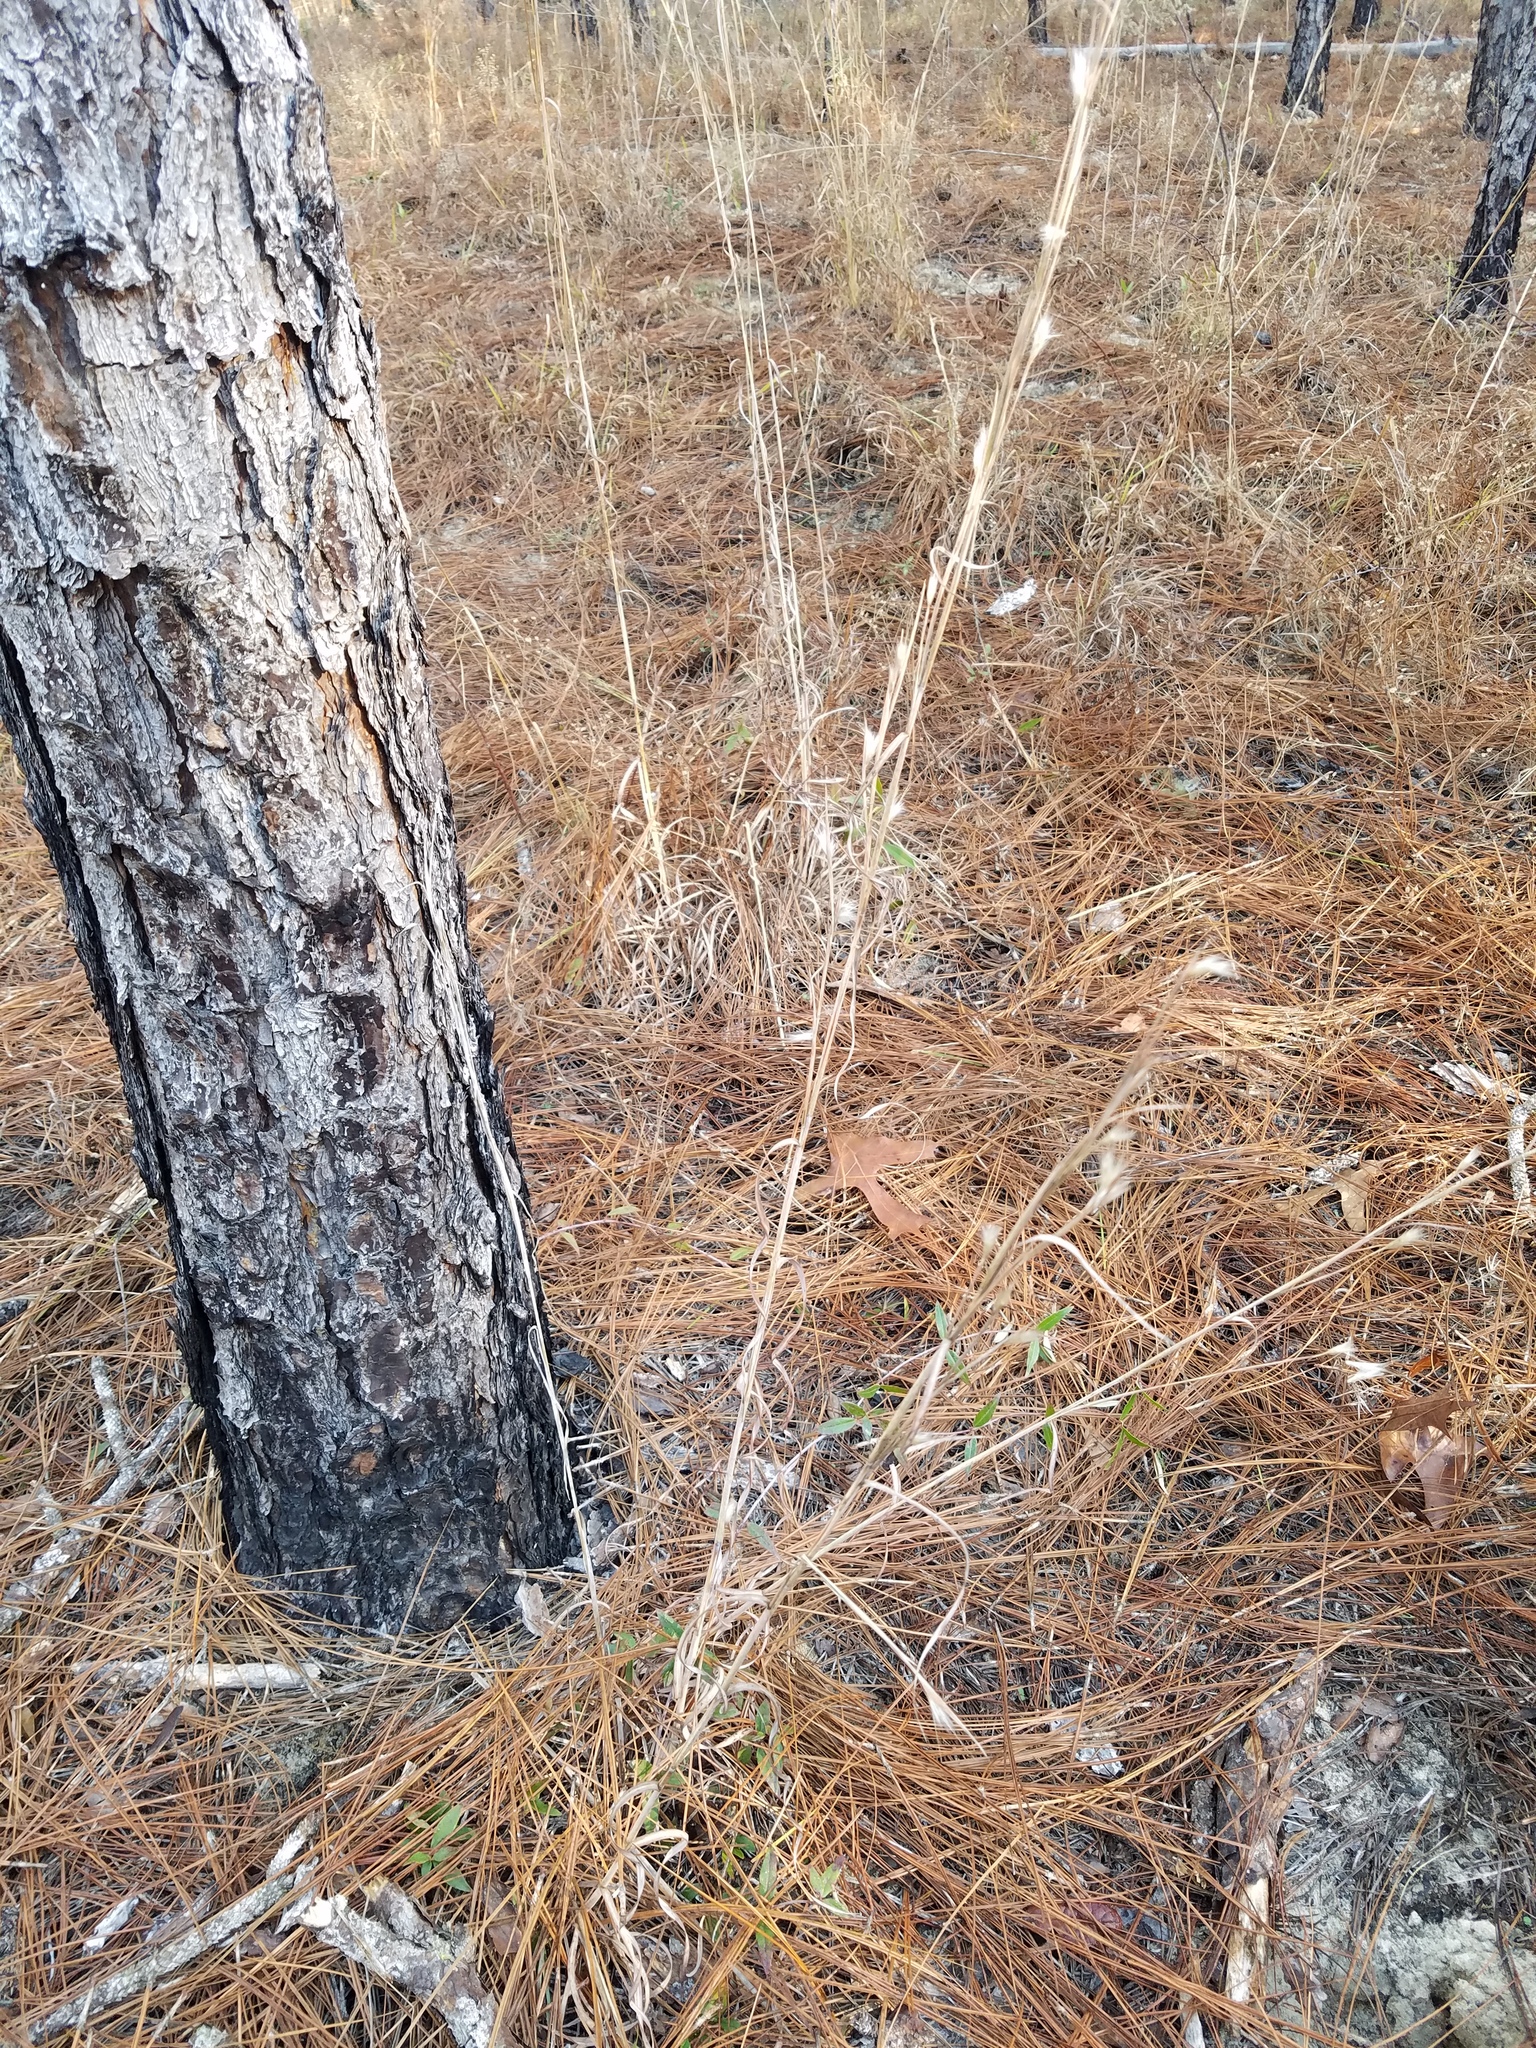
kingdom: Plantae
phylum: Tracheophyta
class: Liliopsida
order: Poales
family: Poaceae
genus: Andropogon
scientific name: Andropogon ternarius
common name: Split bluestem
